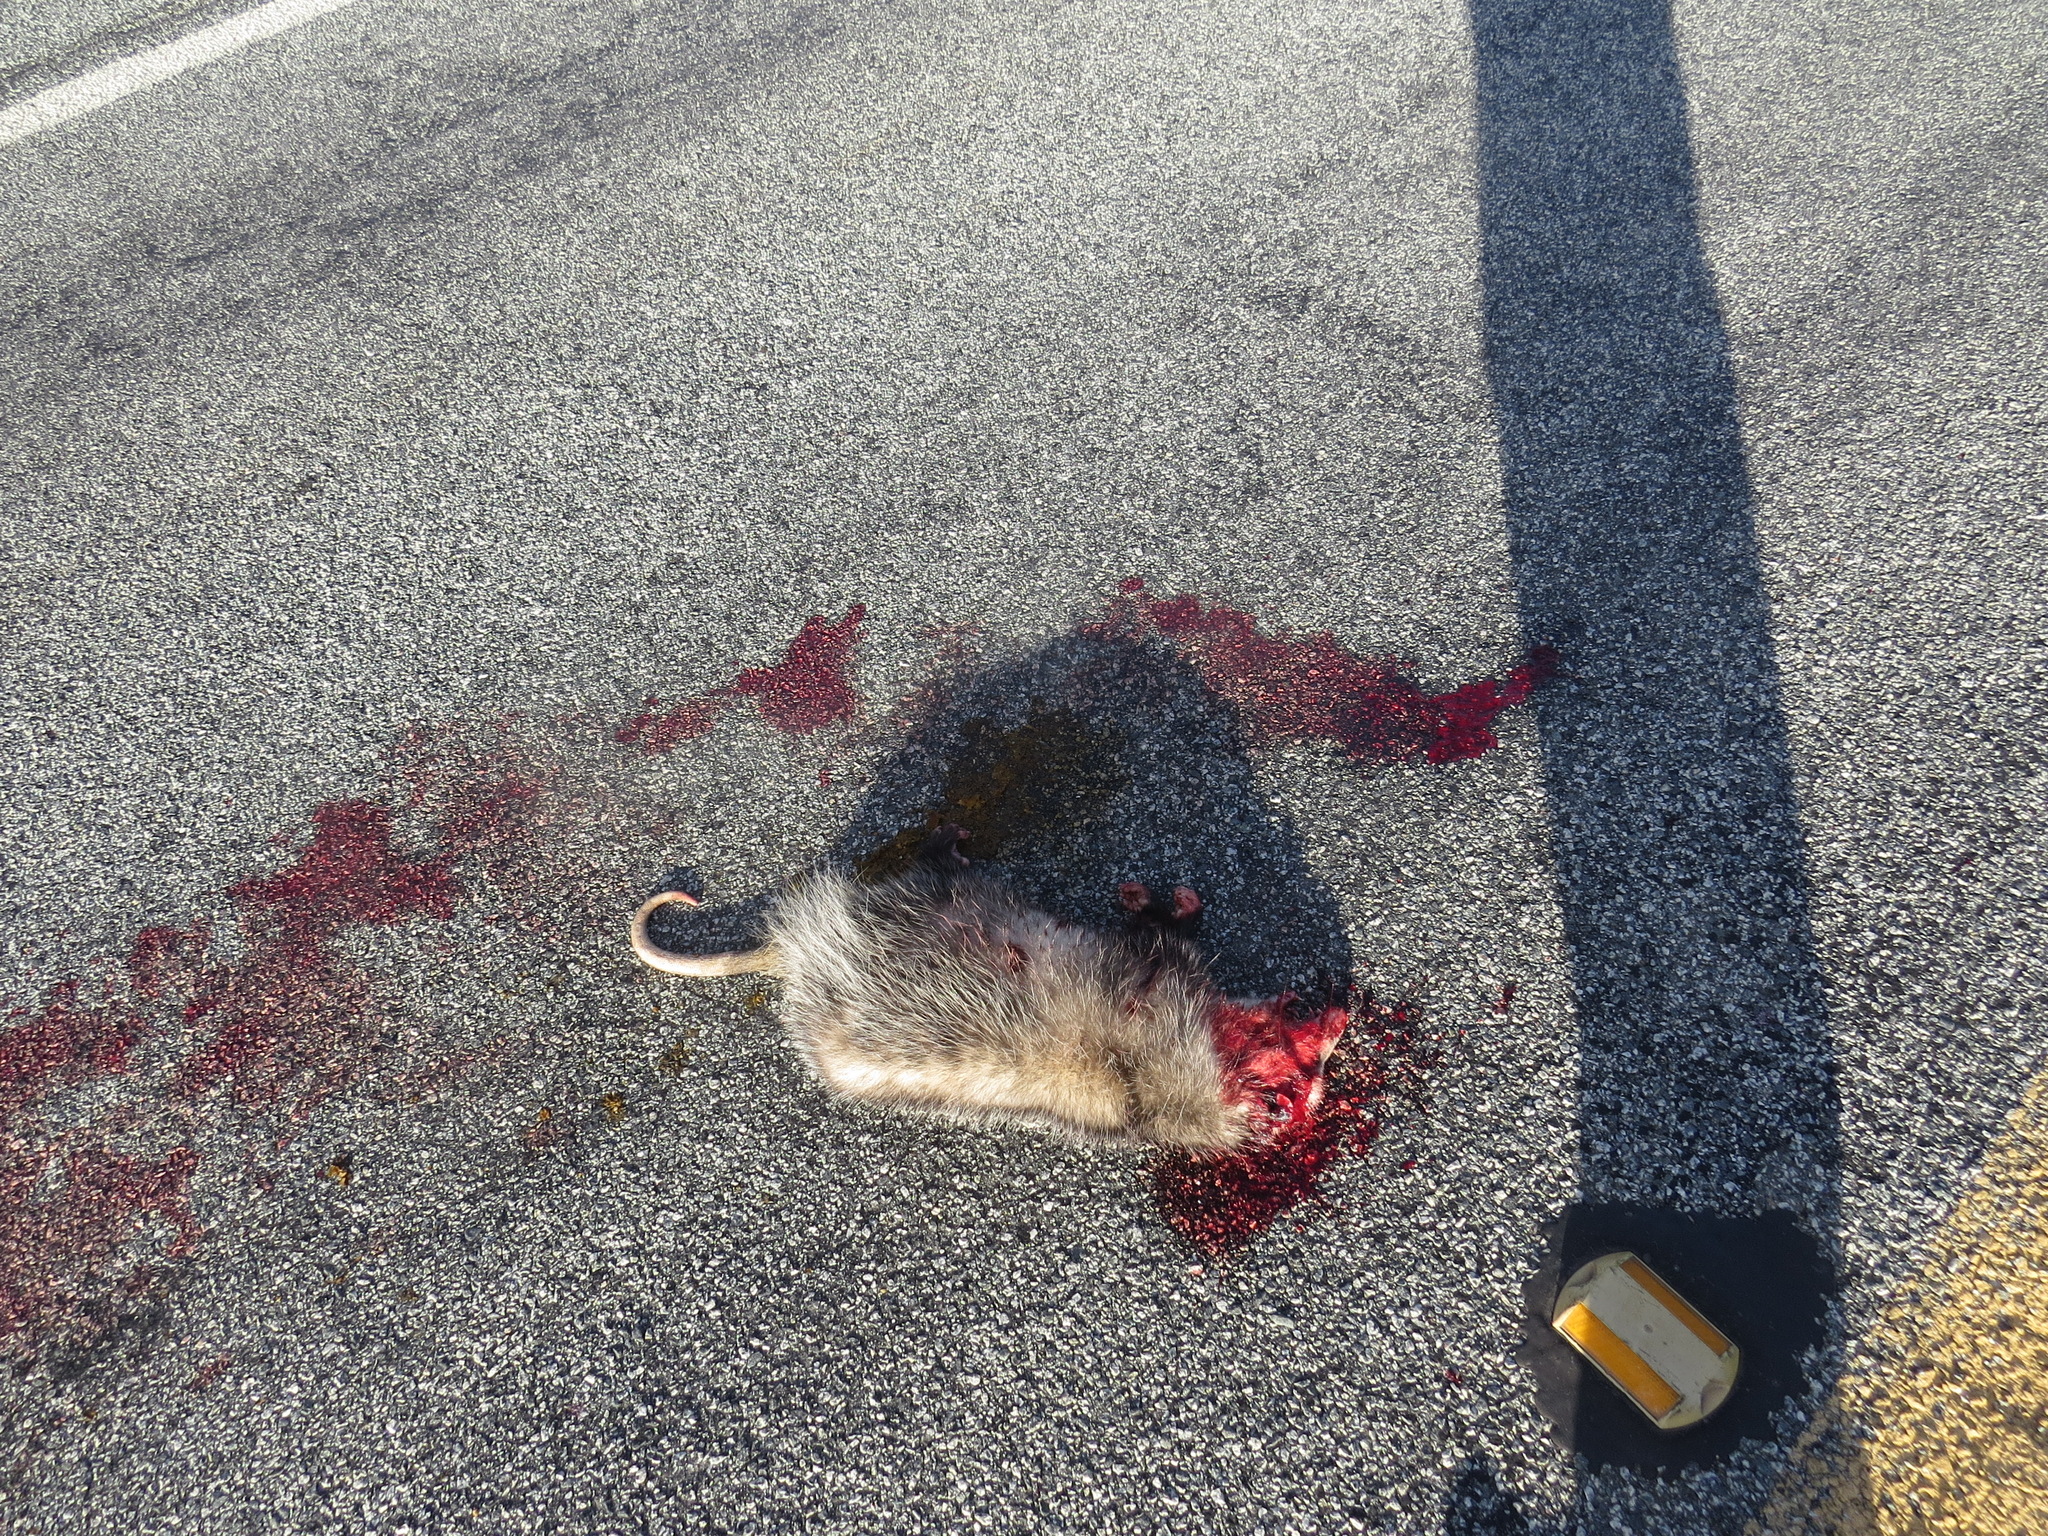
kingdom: Animalia
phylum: Chordata
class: Mammalia
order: Didelphimorphia
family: Didelphidae
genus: Didelphis
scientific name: Didelphis virginiana
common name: Virginia opossum
